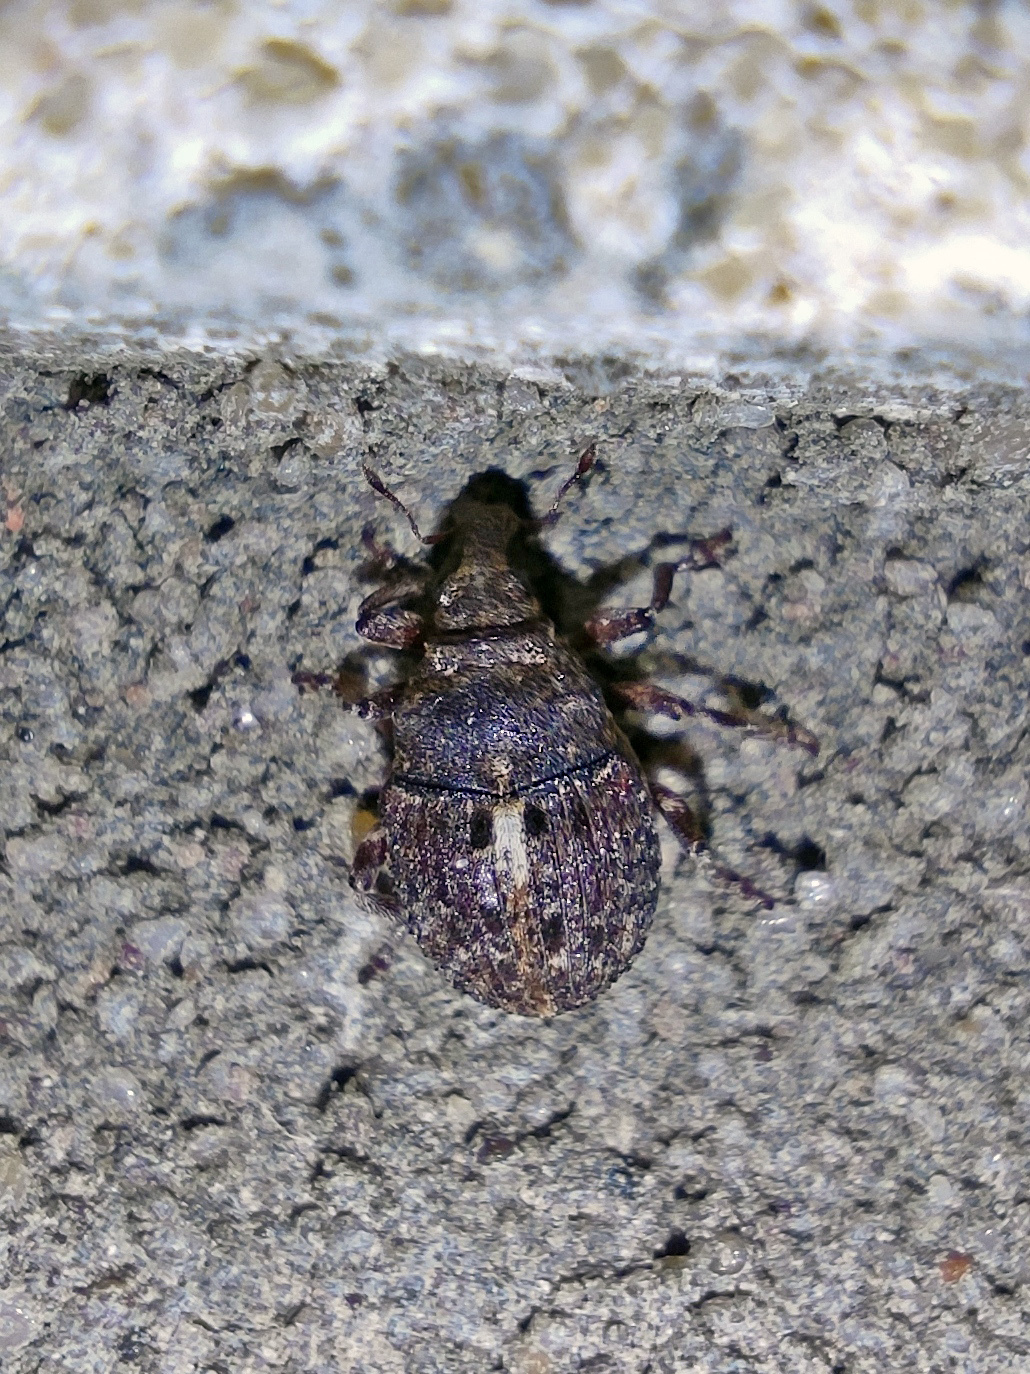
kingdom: Animalia
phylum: Arthropoda
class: Insecta
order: Coleoptera
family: Curculionidae
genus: Phrydiuchus
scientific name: Phrydiuchus topiarius
